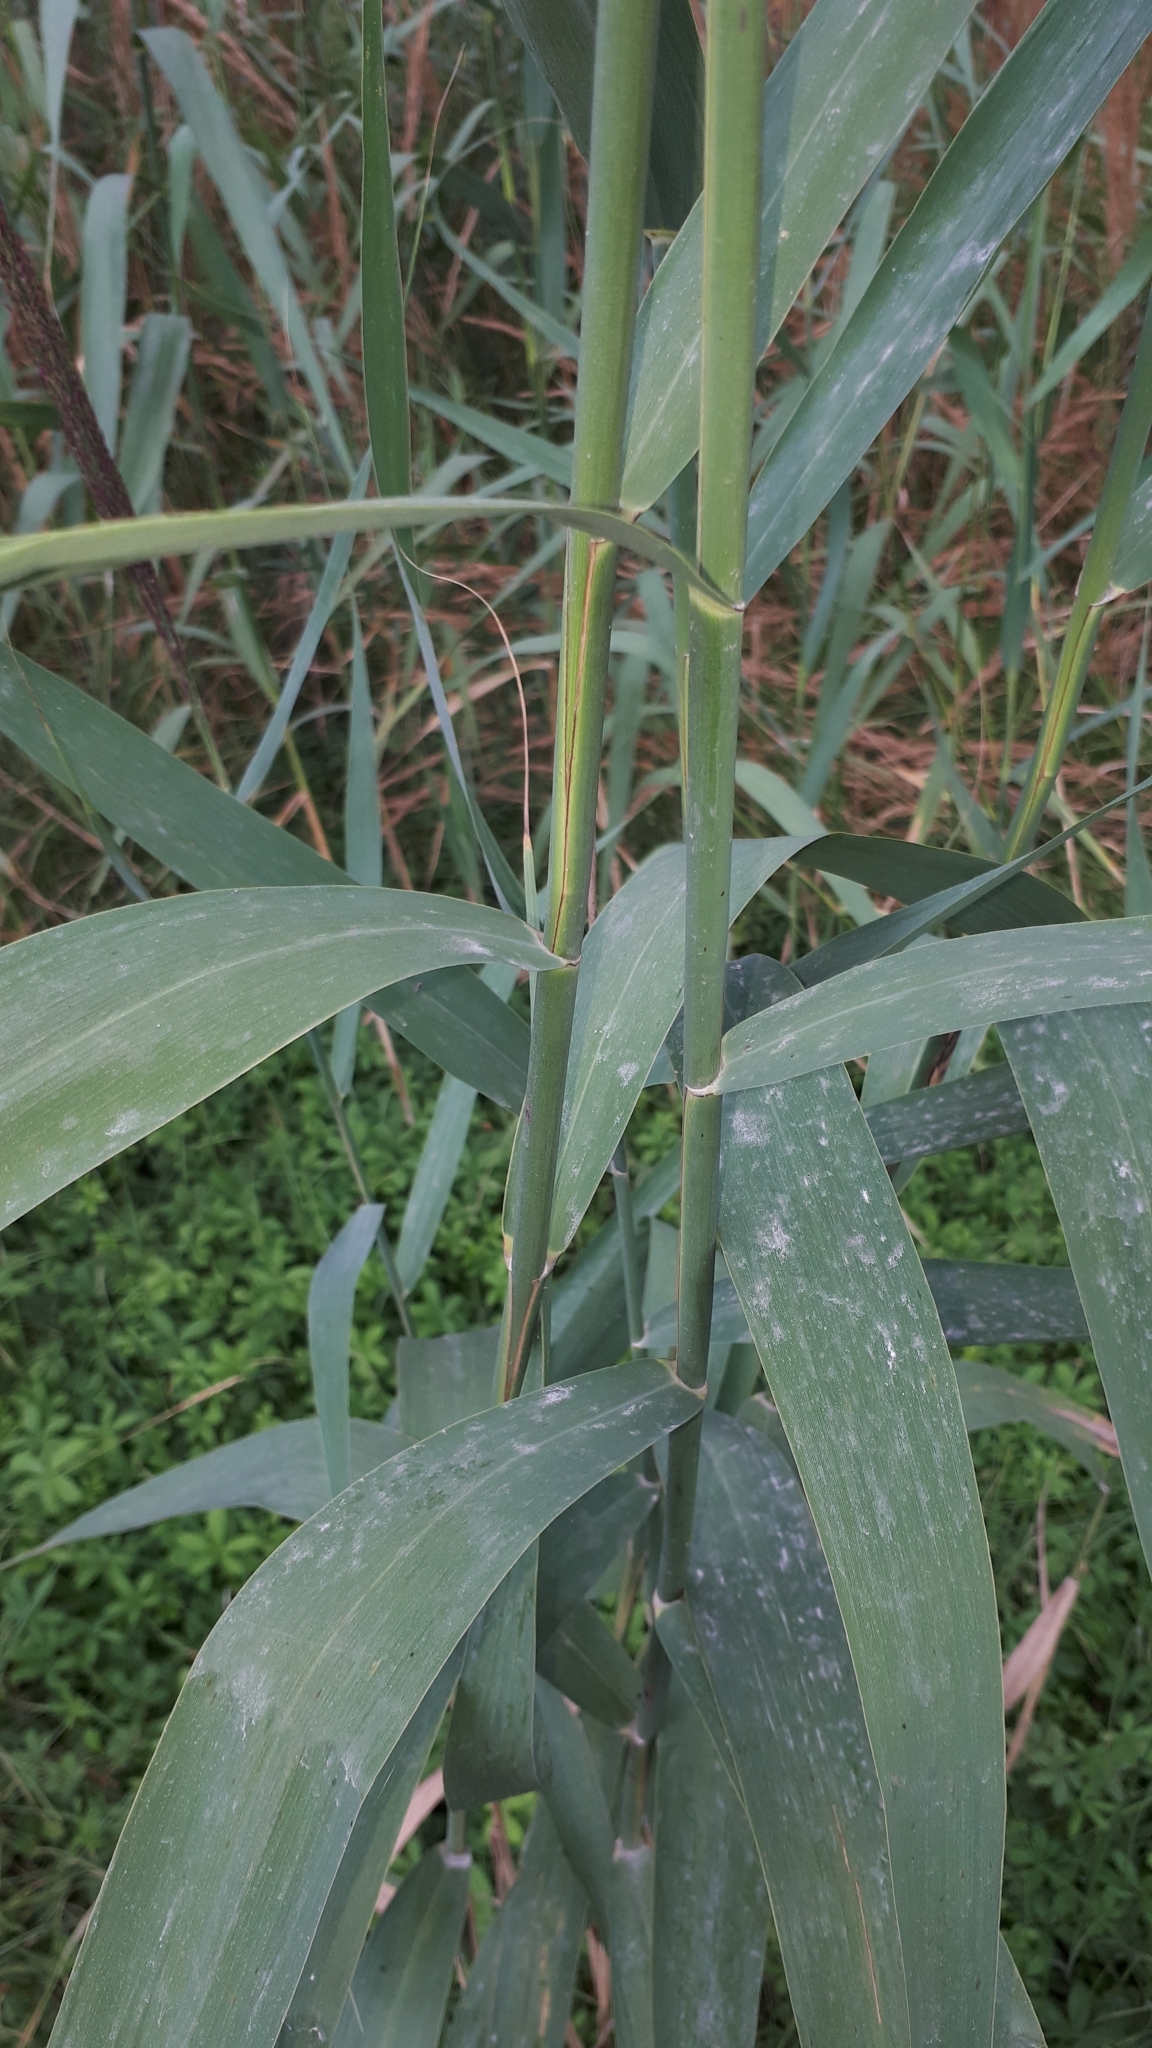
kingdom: Plantae
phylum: Tracheophyta
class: Liliopsida
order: Poales
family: Poaceae
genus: Phragmites
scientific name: Phragmites australis
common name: Common reed
